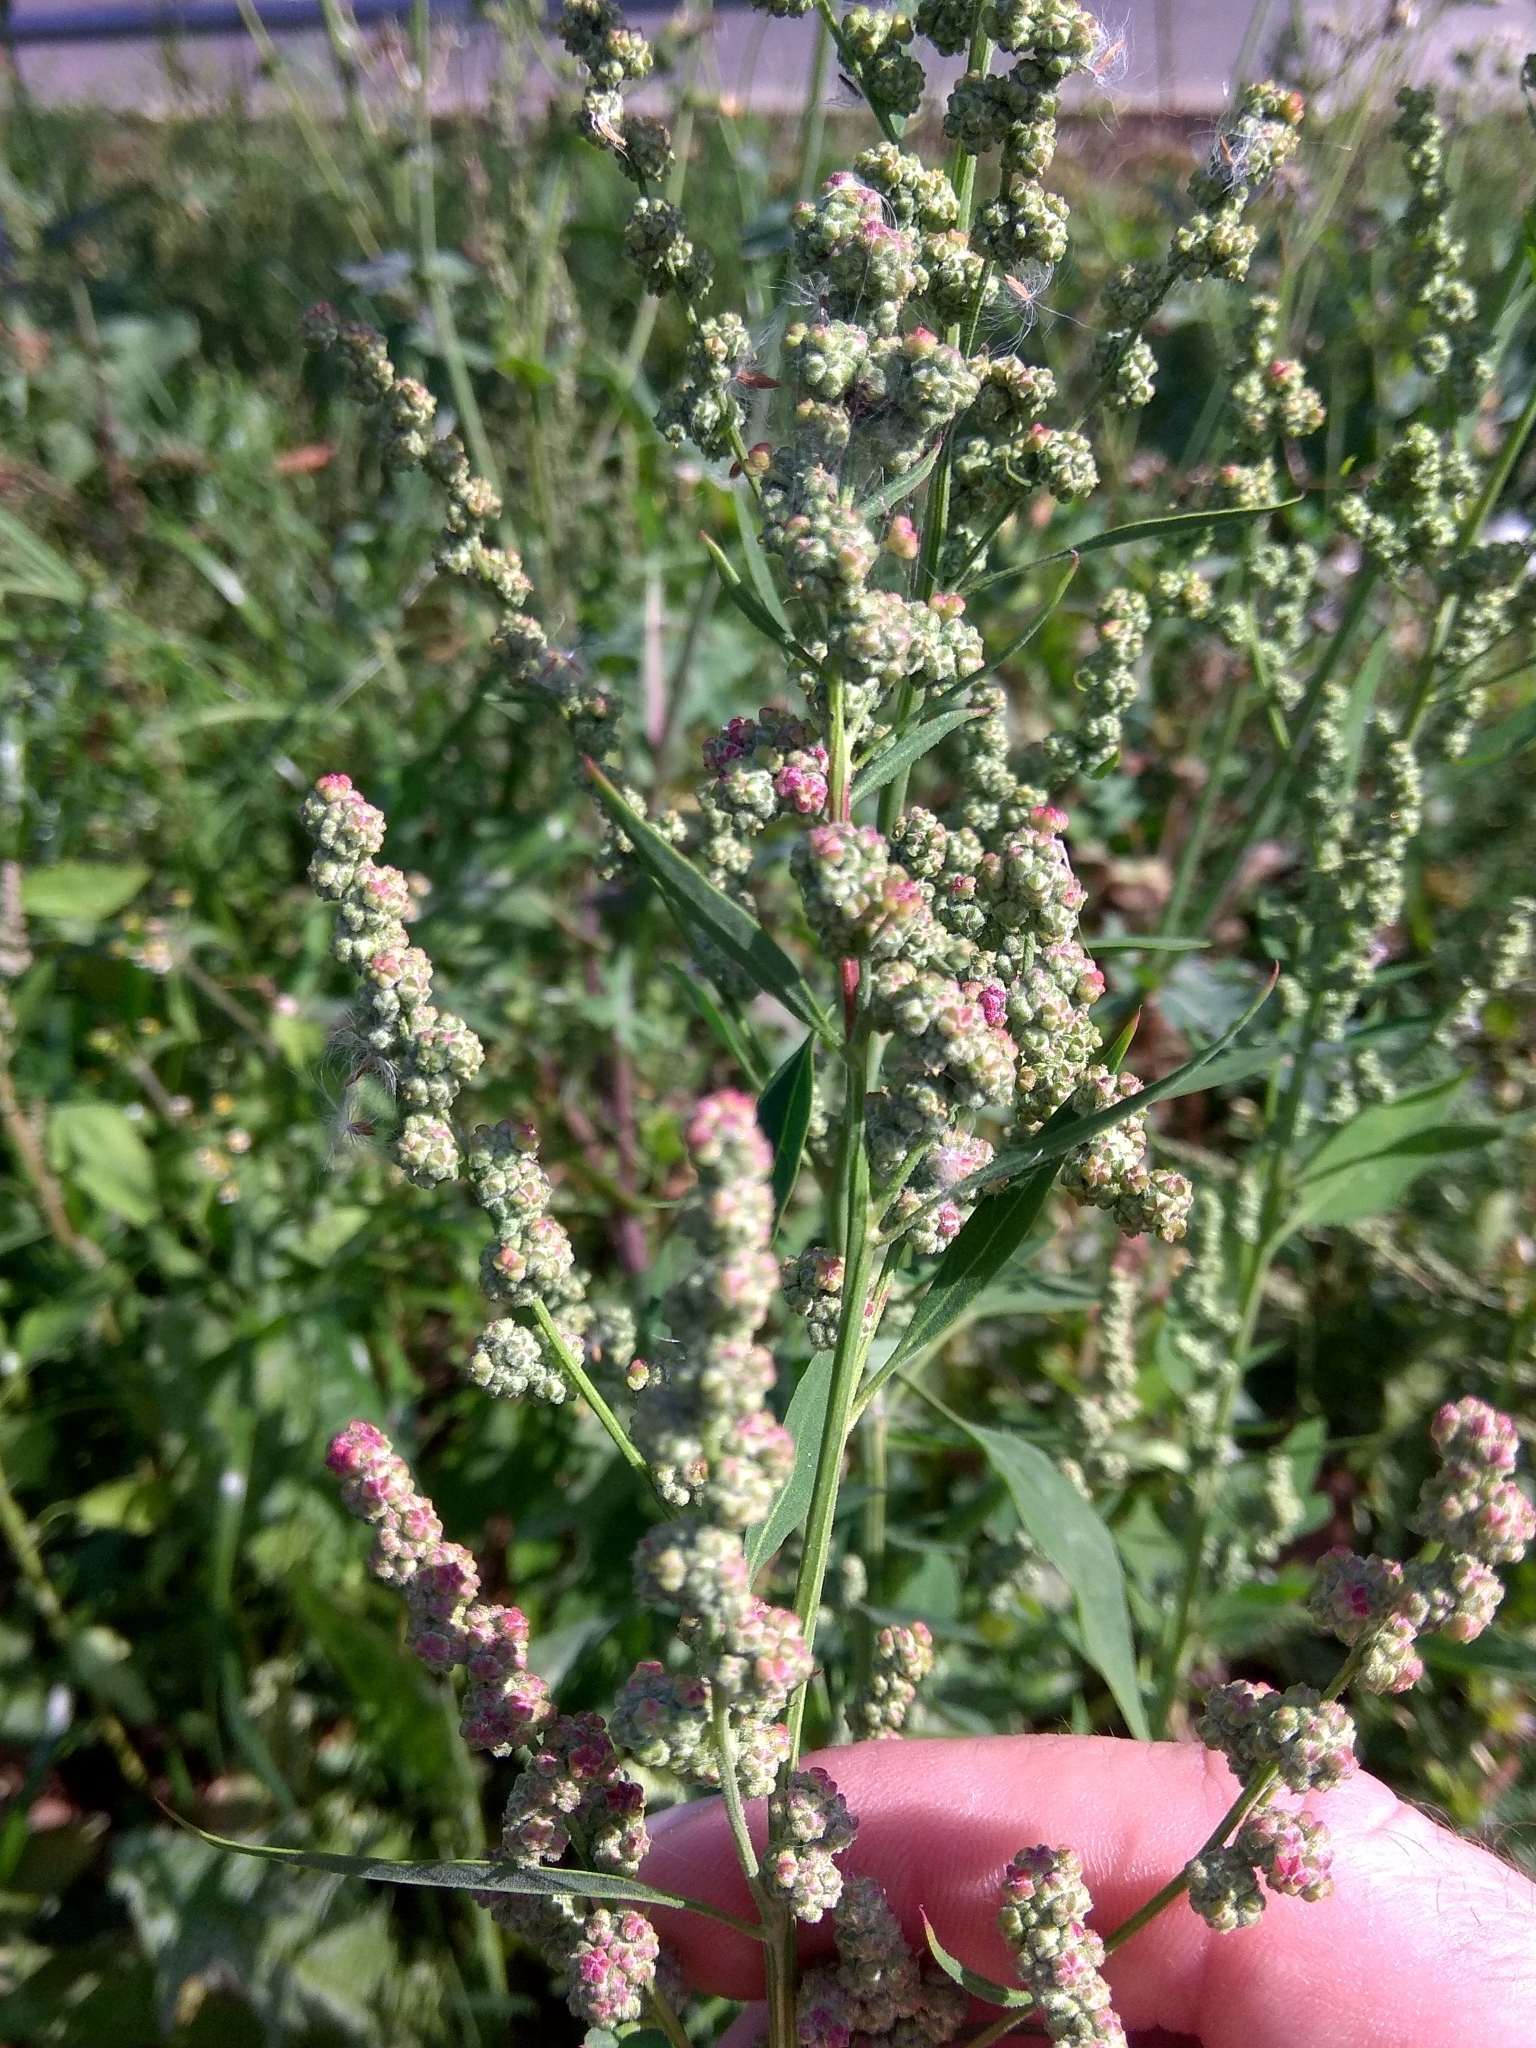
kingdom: Plantae
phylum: Tracheophyta
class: Magnoliopsida
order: Caryophyllales
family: Amaranthaceae
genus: Chenopodium
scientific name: Chenopodium album
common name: Fat-hen
